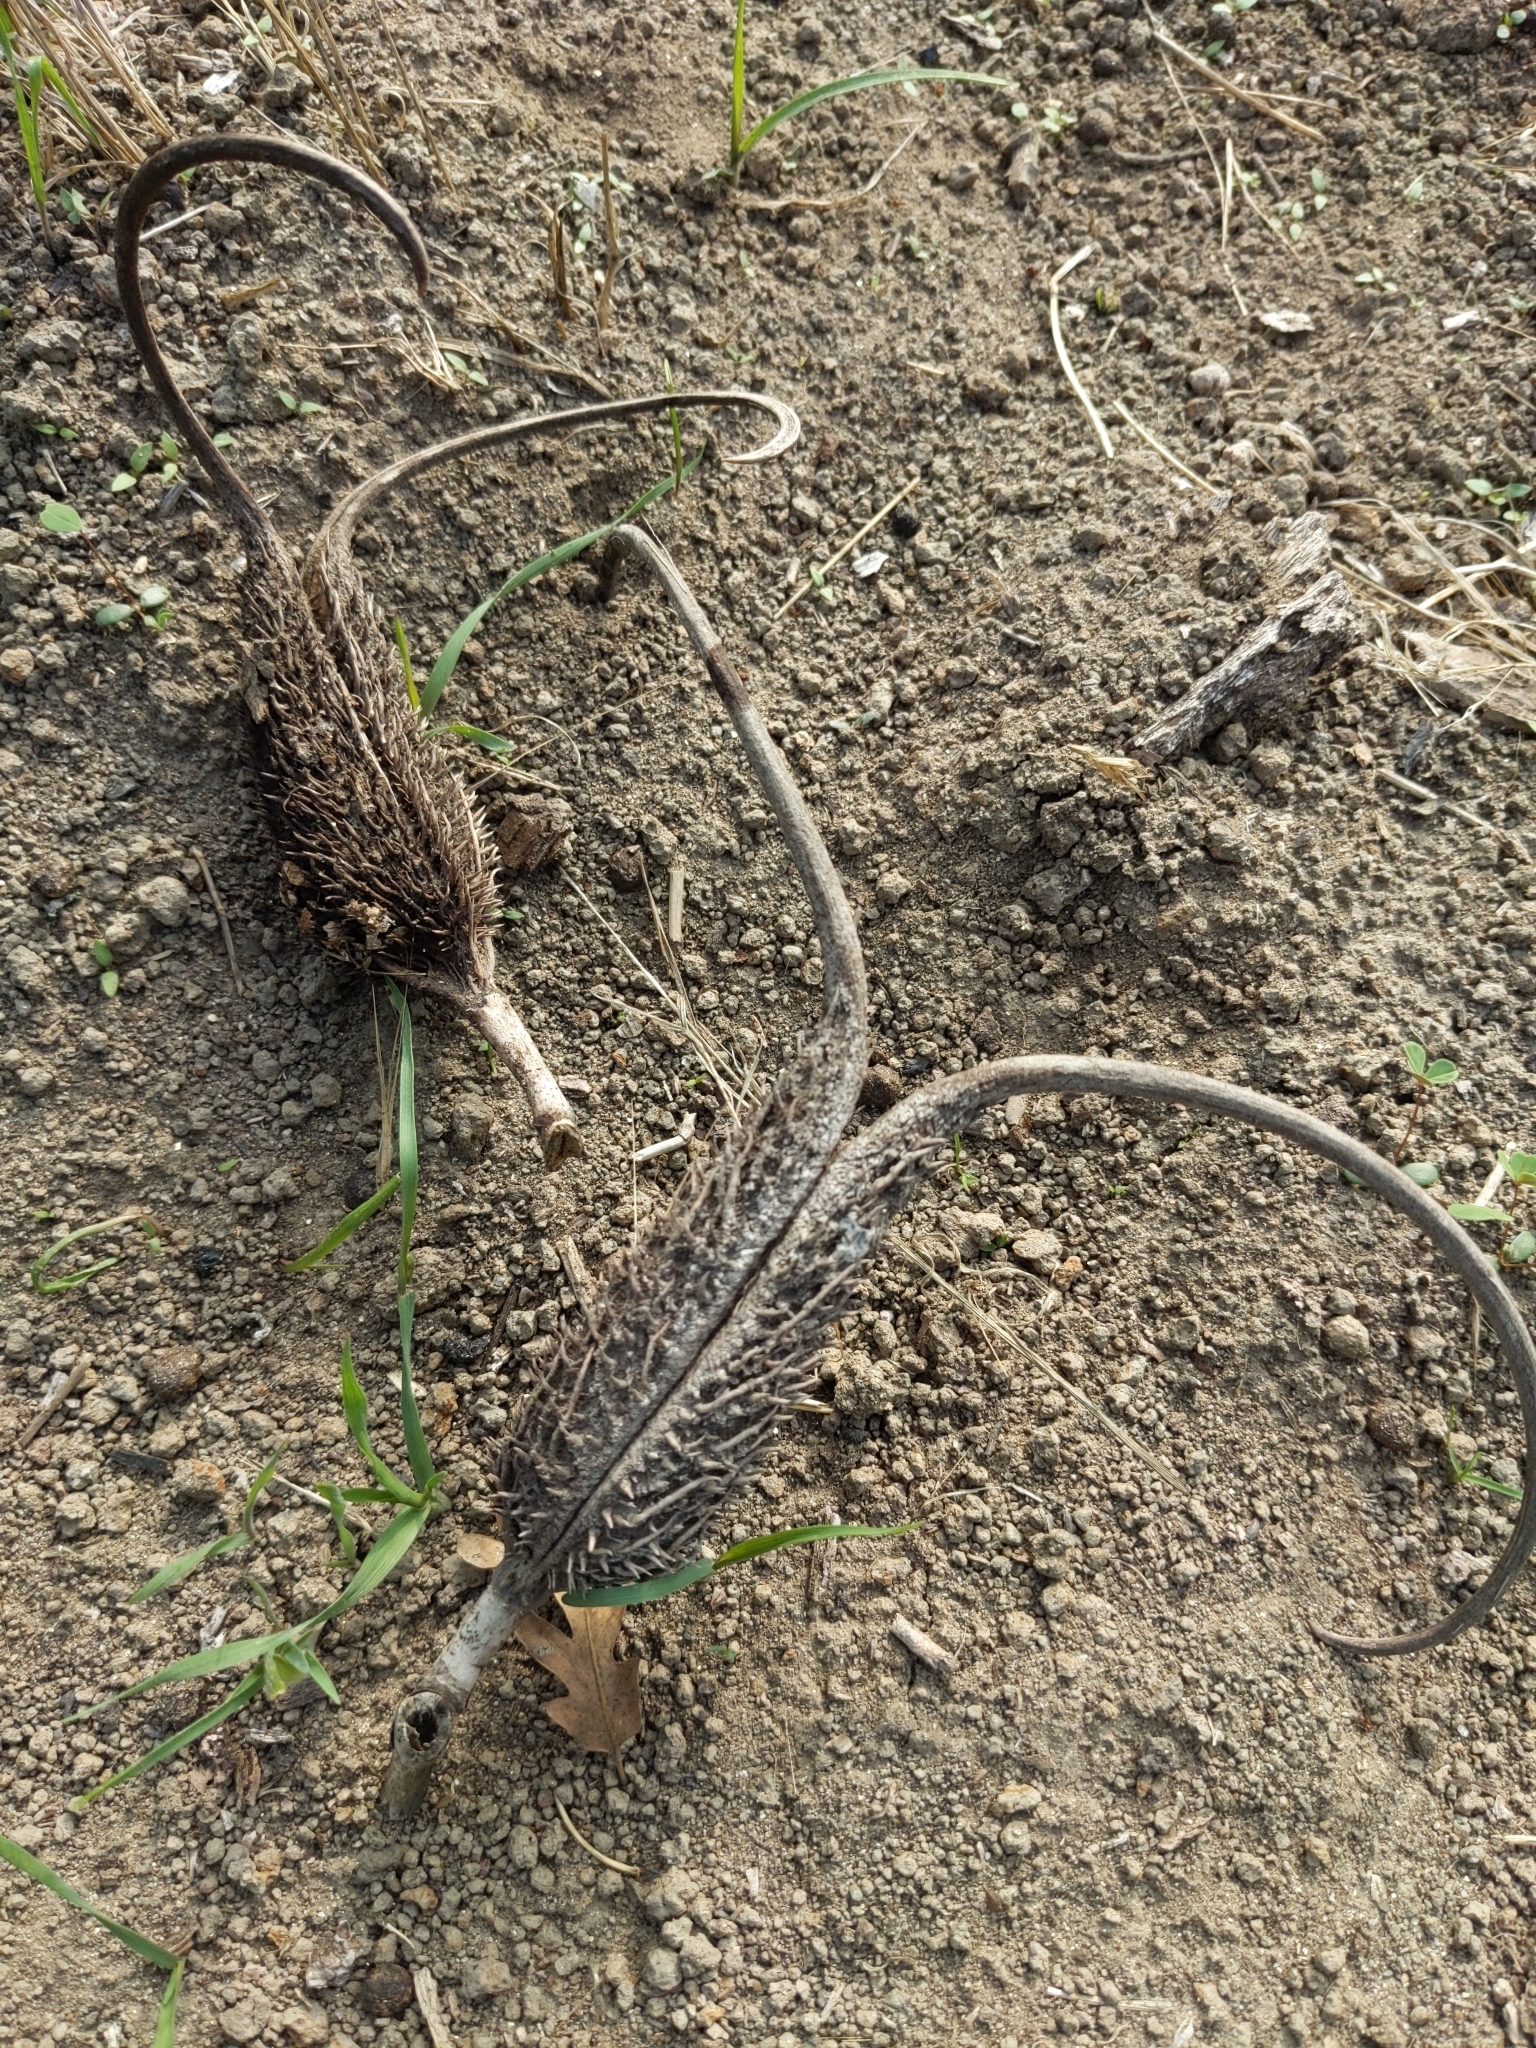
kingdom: Plantae
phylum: Tracheophyta
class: Magnoliopsida
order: Lamiales
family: Martyniaceae
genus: Ibicella
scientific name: Ibicella lutea
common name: Yellow unicorn-plant
